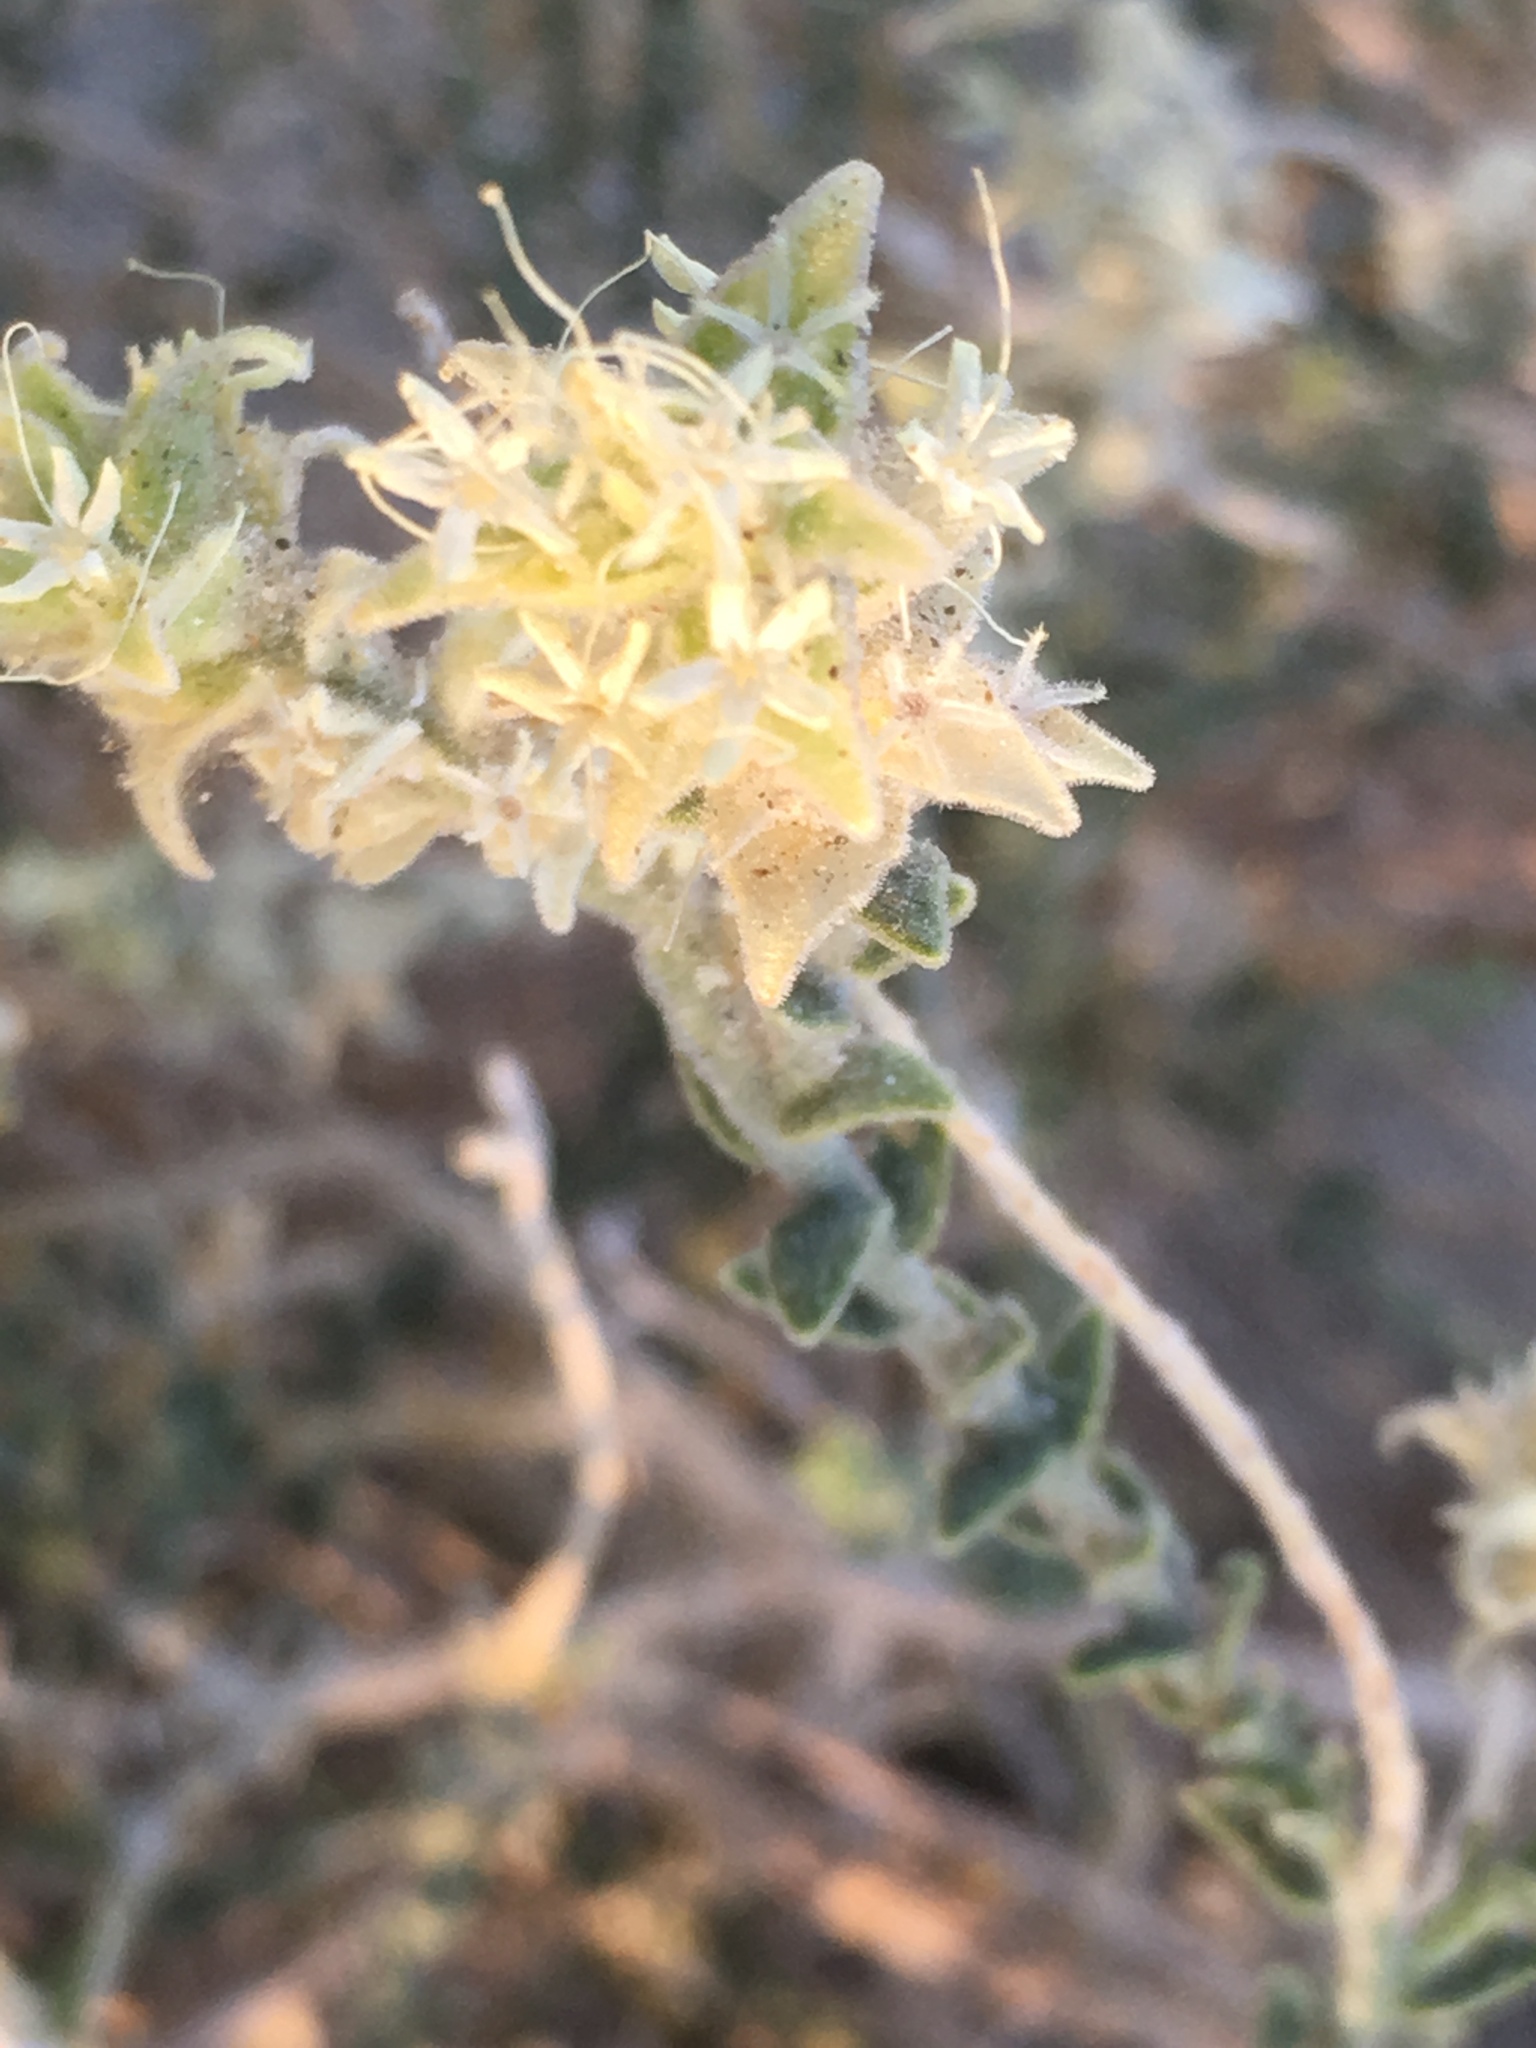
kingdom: Plantae
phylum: Tracheophyta
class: Magnoliopsida
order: Cornales
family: Loasaceae
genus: Petalonyx
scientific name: Petalonyx thurberi
